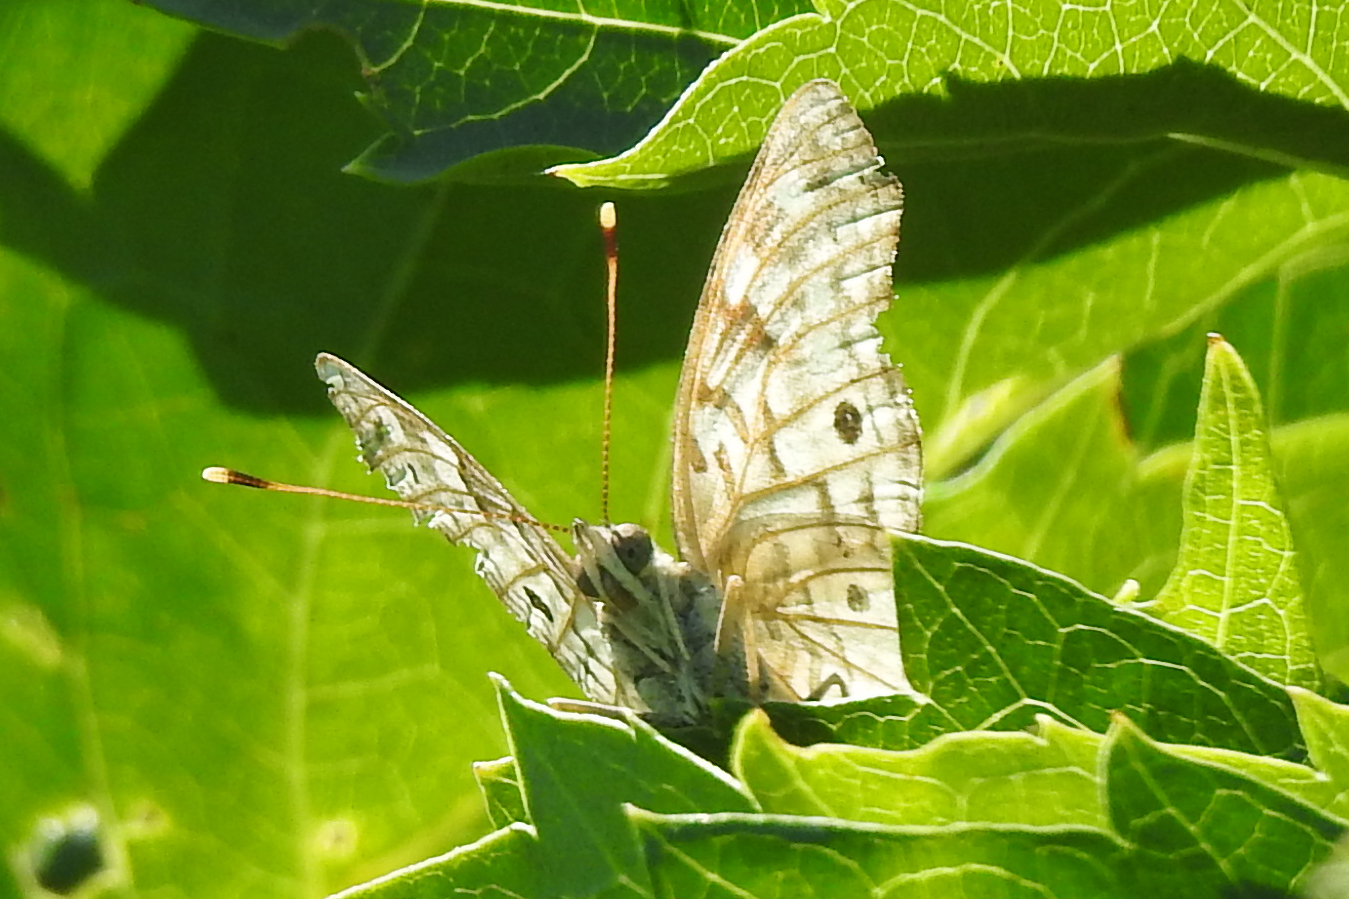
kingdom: Animalia
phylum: Arthropoda
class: Insecta
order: Lepidoptera
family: Nymphalidae
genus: Asterocampa
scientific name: Asterocampa celtis
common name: Hackberry emperor
